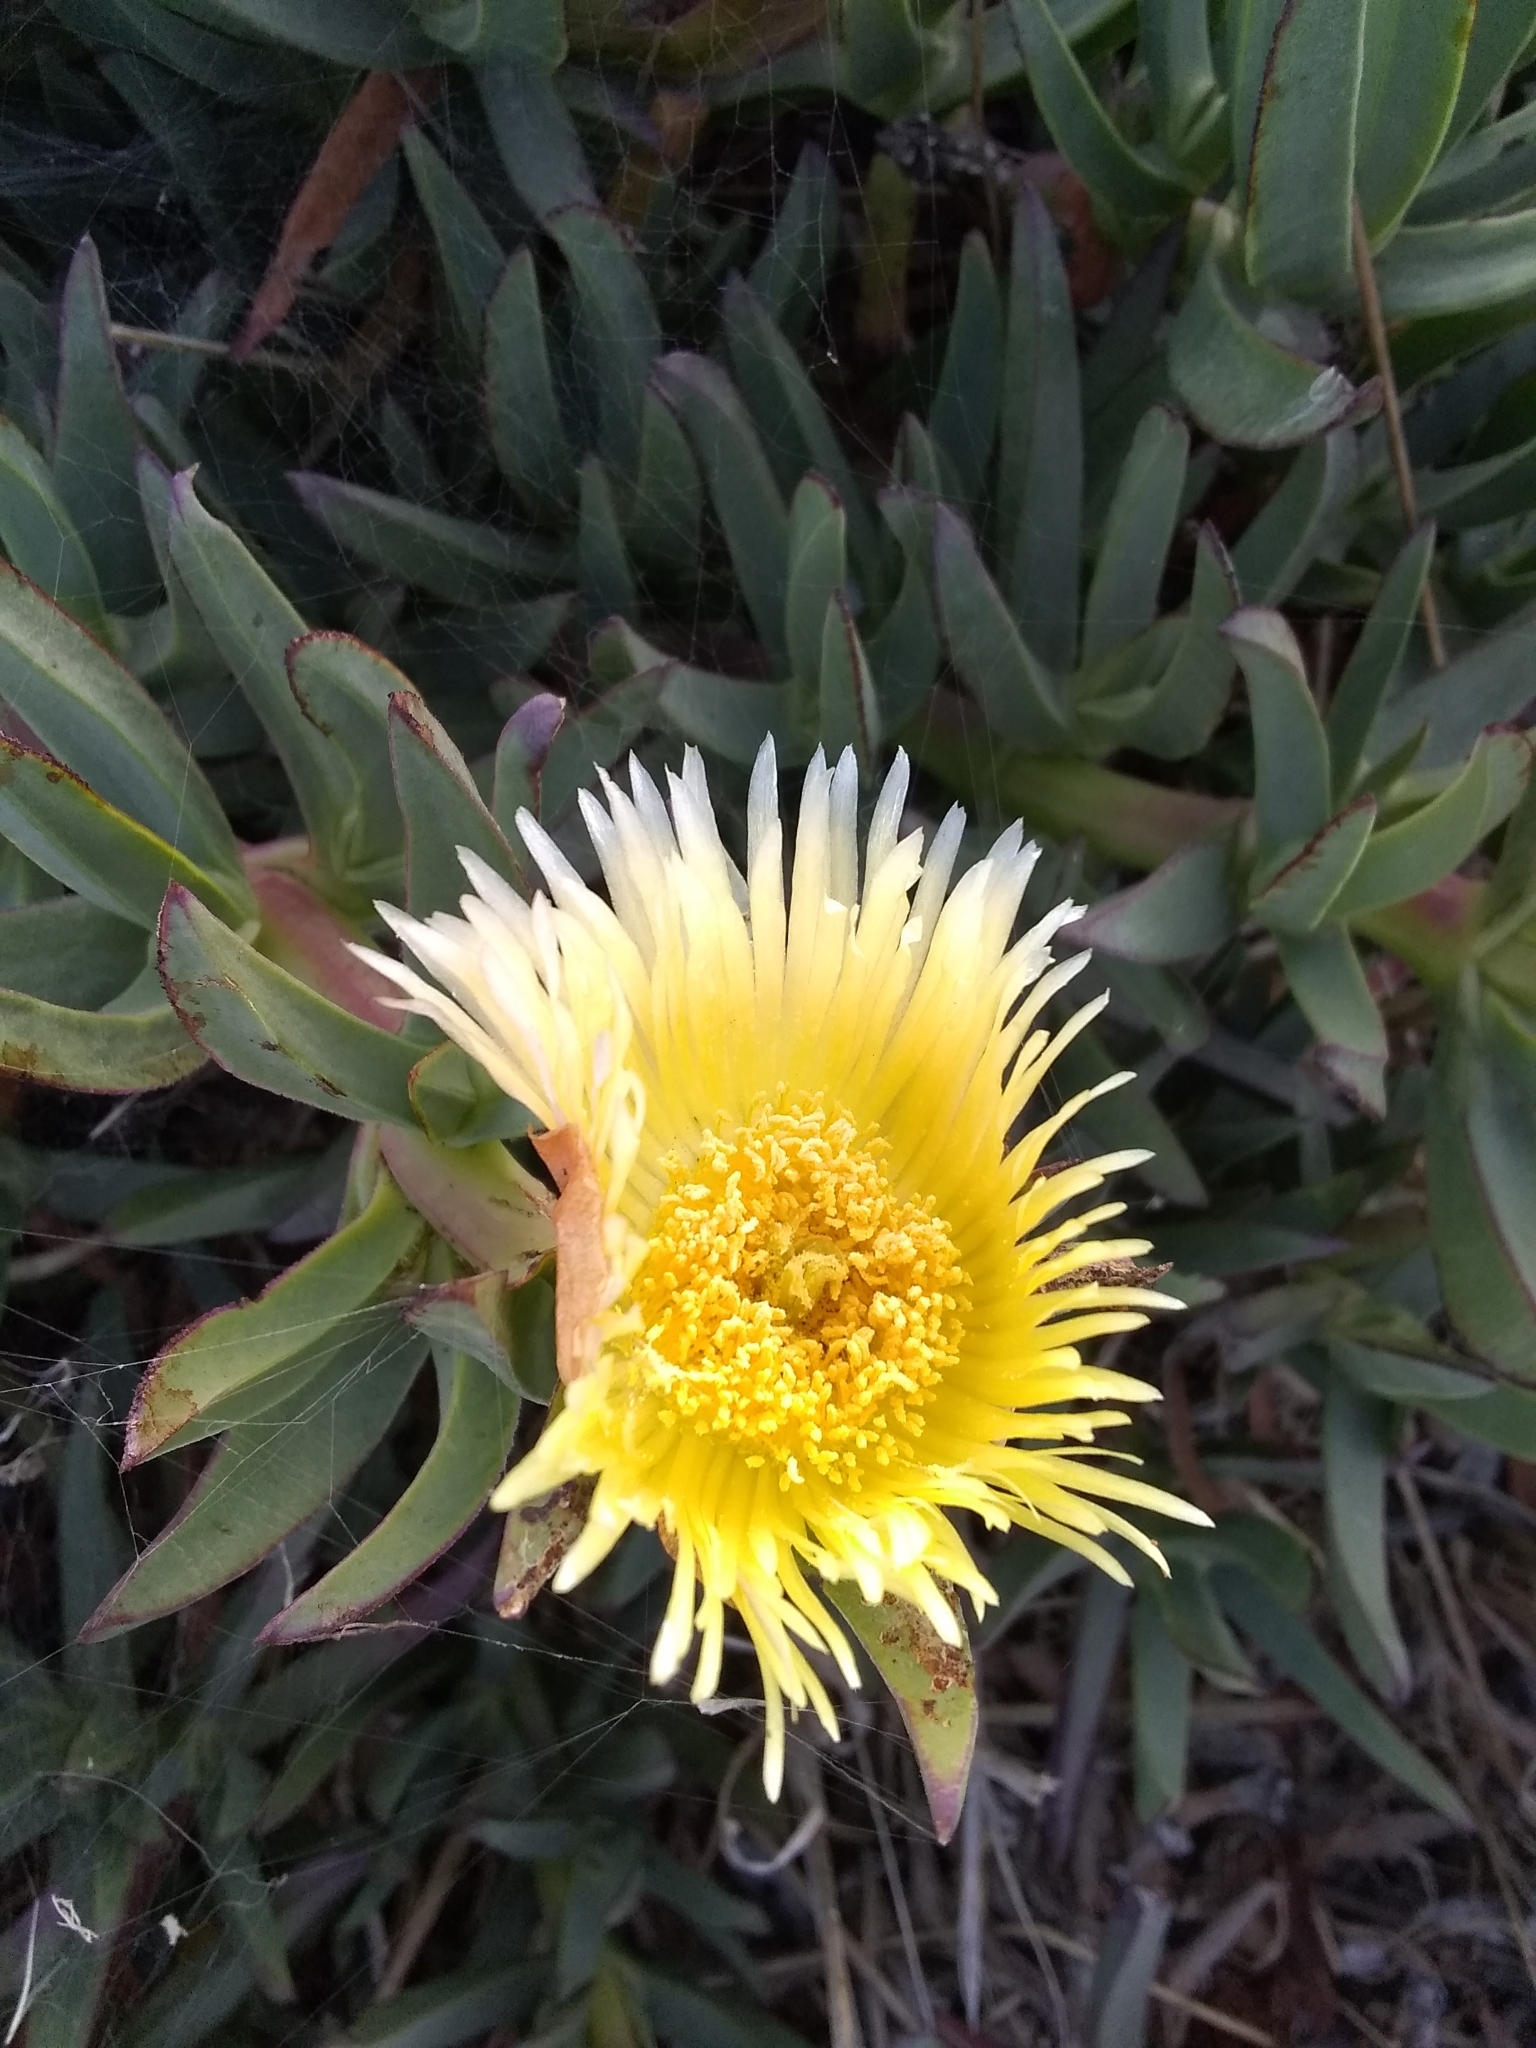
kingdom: Plantae
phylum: Tracheophyta
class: Magnoliopsida
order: Caryophyllales
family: Aizoaceae
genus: Carpobrotus
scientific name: Carpobrotus edulis
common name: Hottentot-fig
